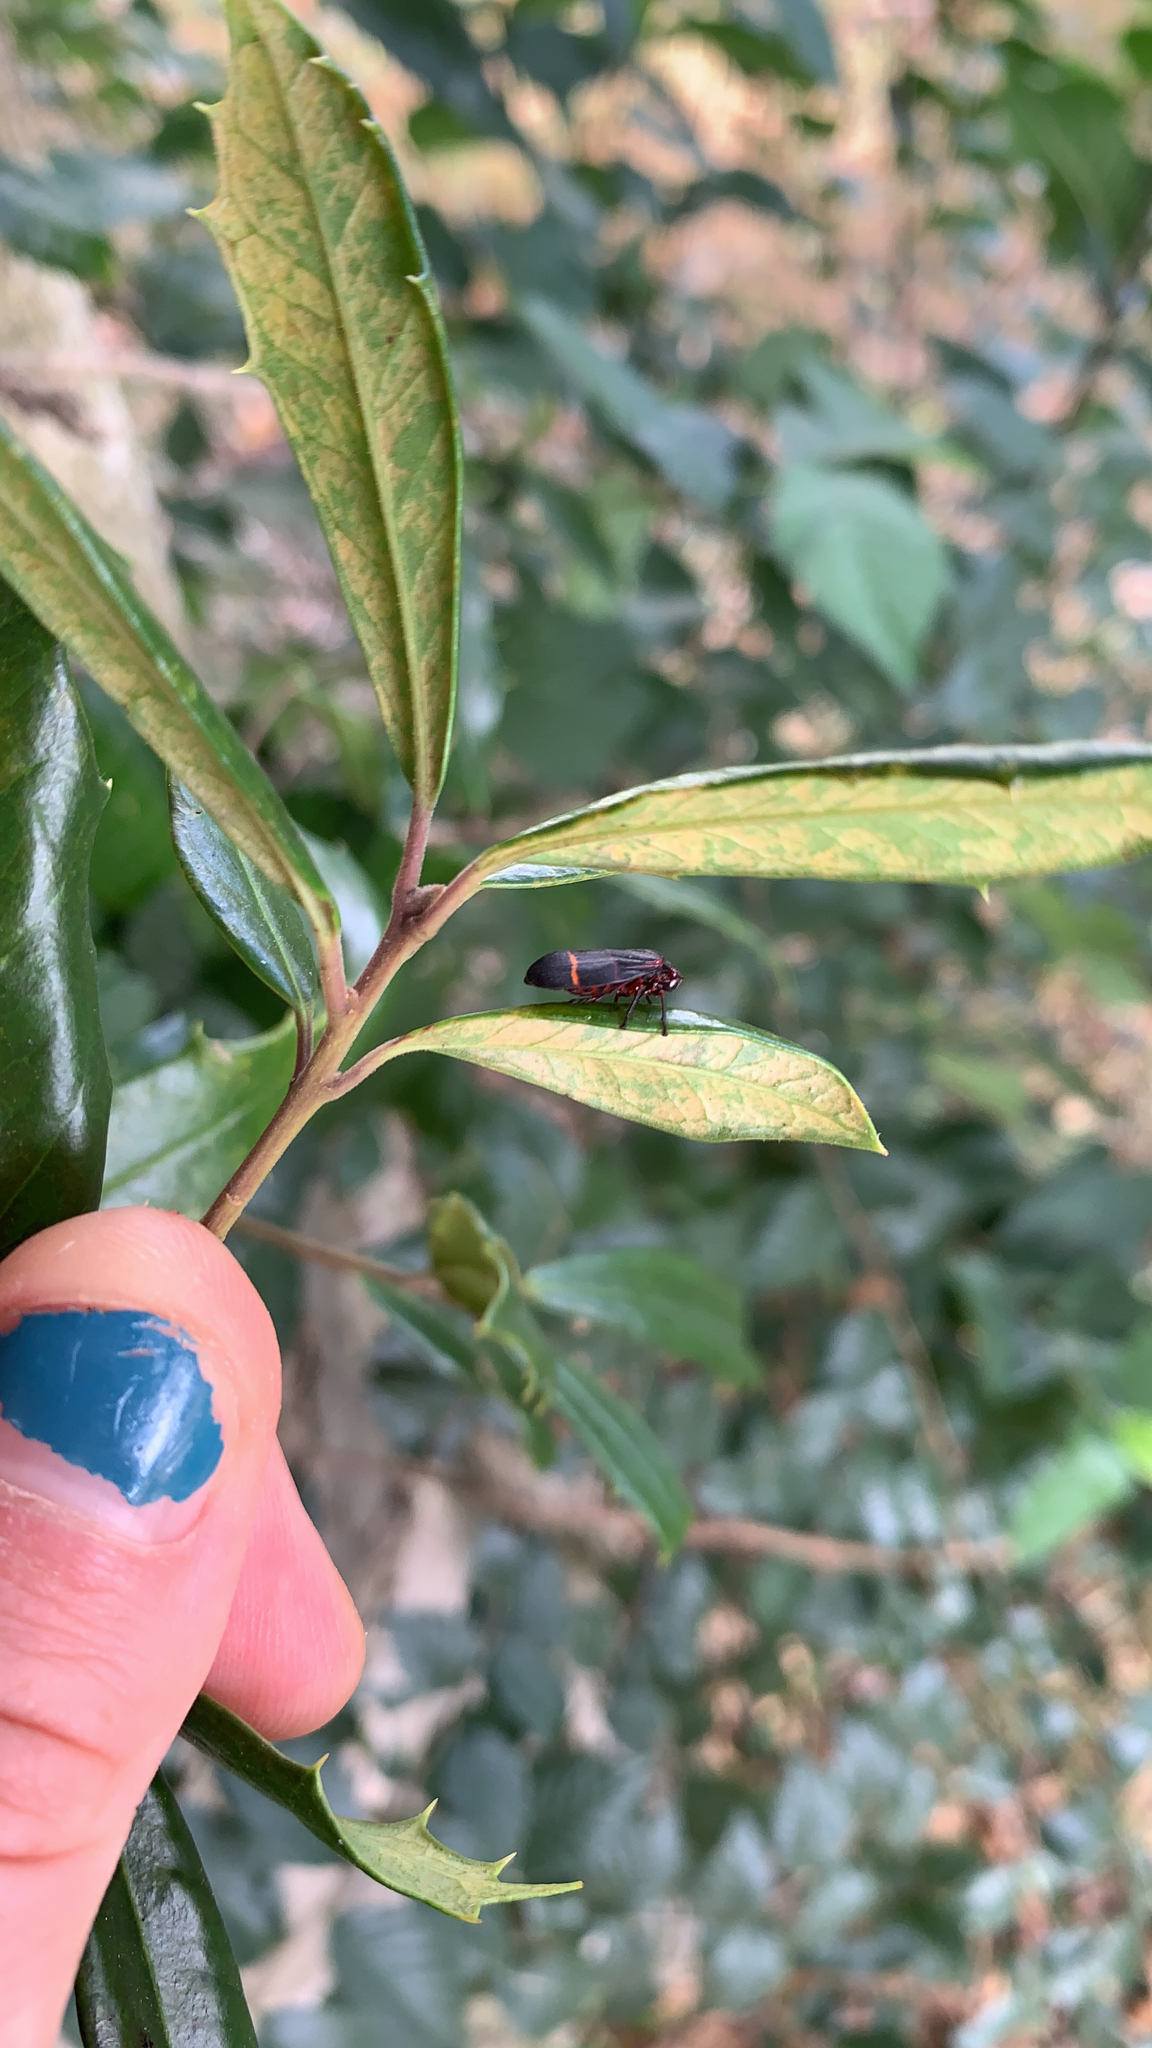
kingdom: Animalia
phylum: Arthropoda
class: Insecta
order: Hemiptera
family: Cercopidae
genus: Prosapia
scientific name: Prosapia bicincta
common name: Twolined spittlebug
